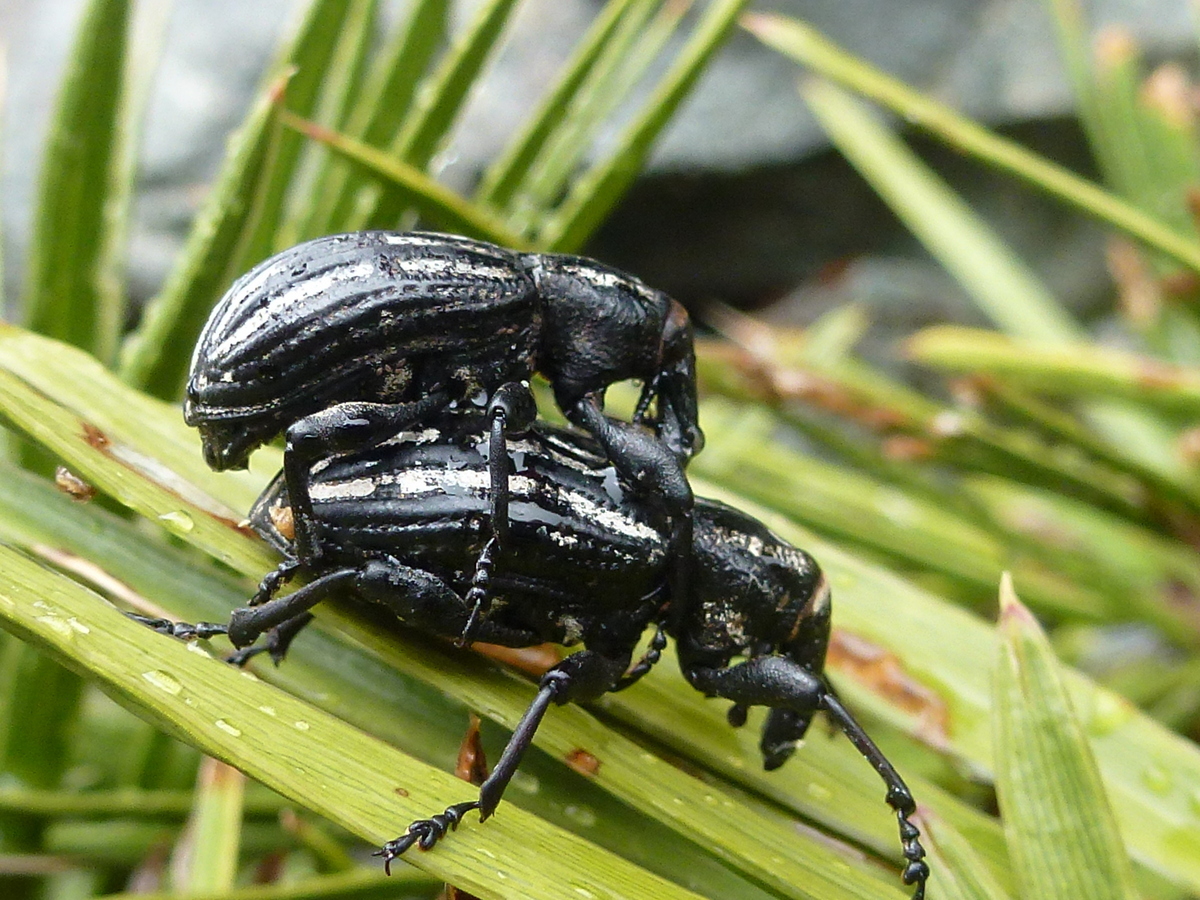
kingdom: Animalia
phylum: Arthropoda
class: Insecta
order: Coleoptera
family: Curculionidae
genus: Lyperobius
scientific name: Lyperobius hudsoni
